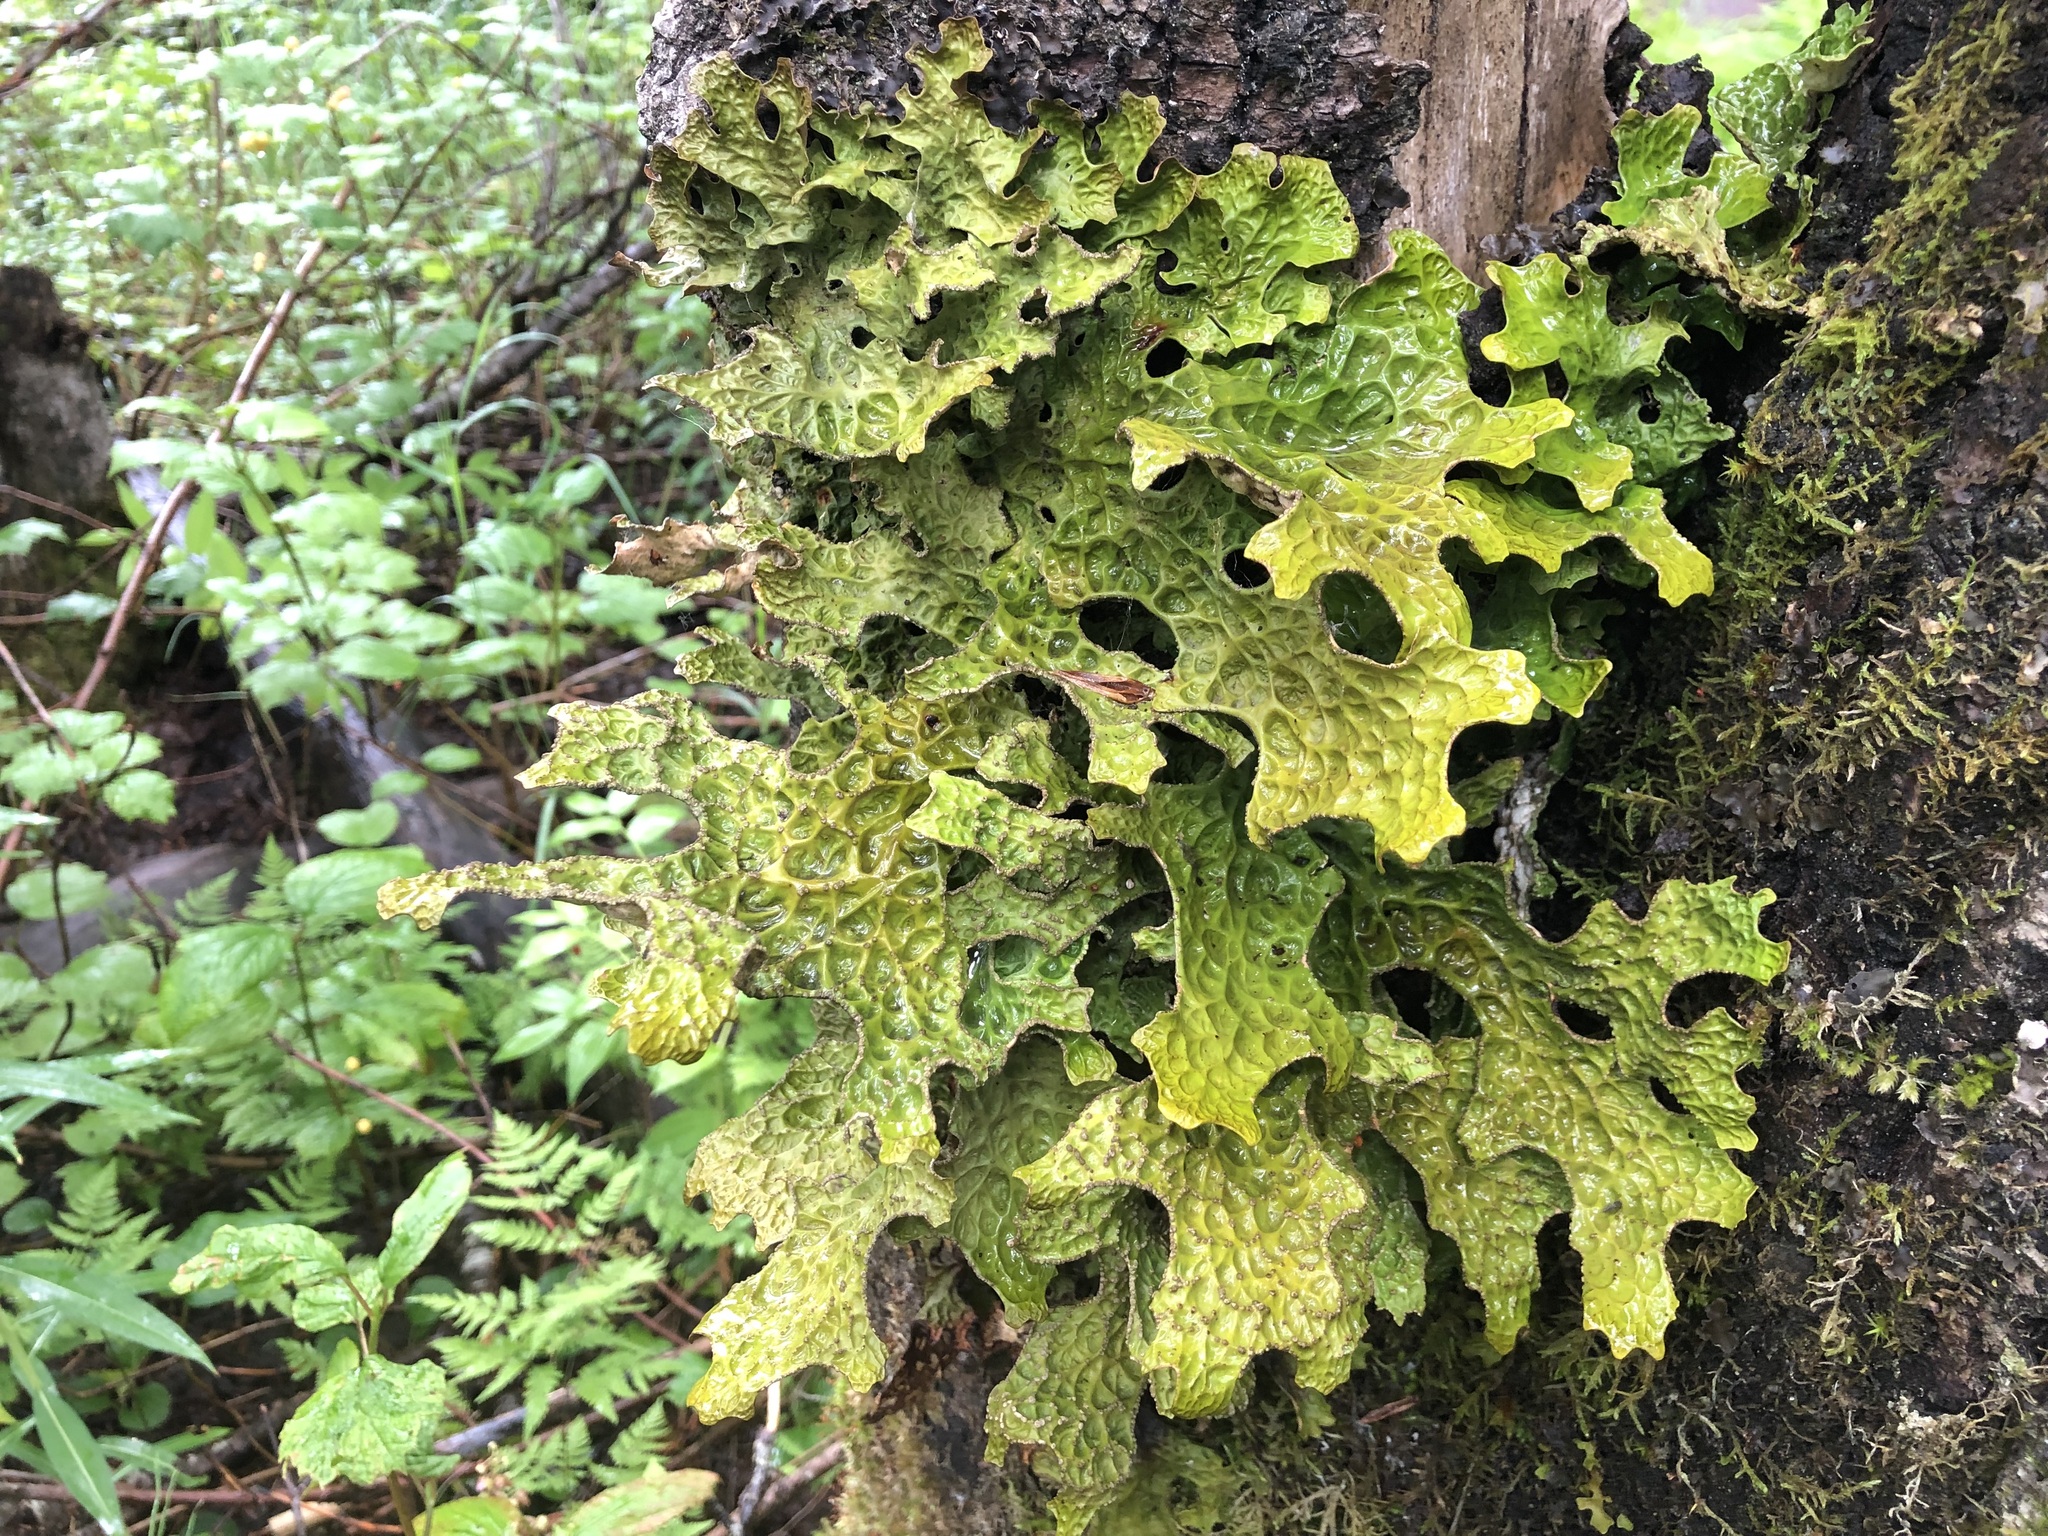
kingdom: Fungi
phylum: Ascomycota
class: Lecanoromycetes
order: Peltigerales
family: Lobariaceae
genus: Lobaria
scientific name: Lobaria pulmonaria
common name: Lungwort
